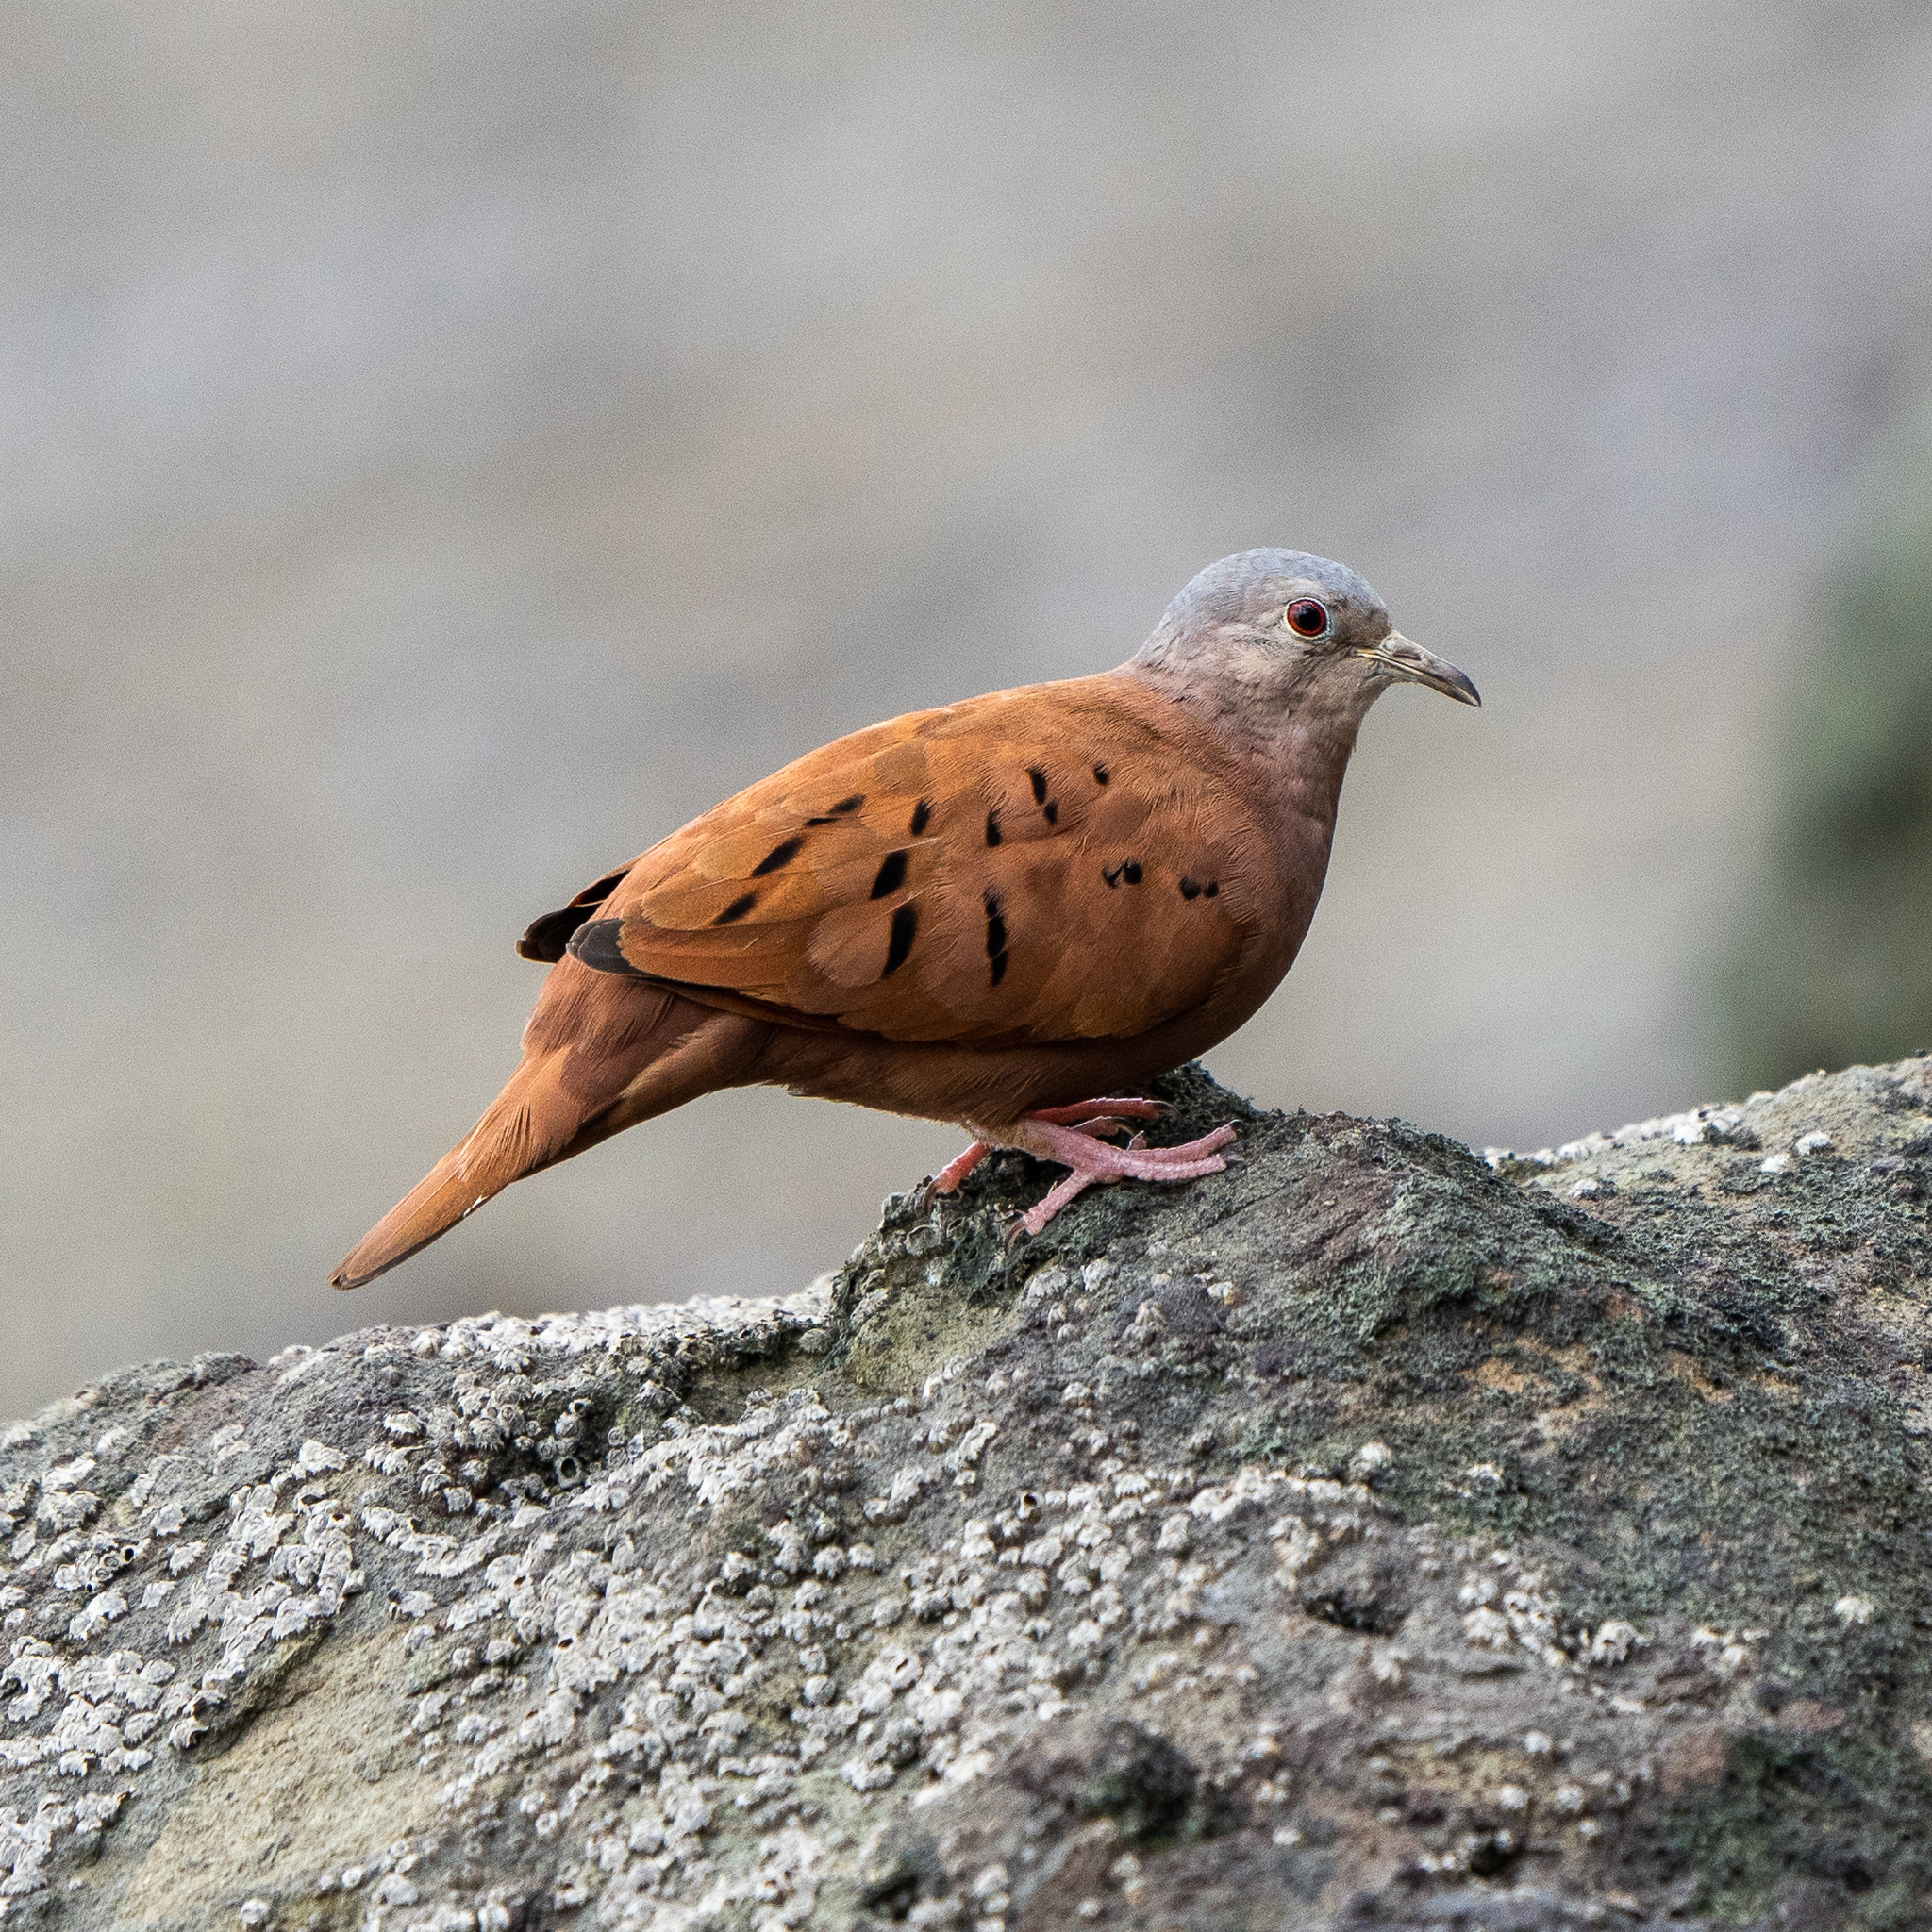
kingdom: Animalia
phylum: Chordata
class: Aves
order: Columbiformes
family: Columbidae
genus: Columbina
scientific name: Columbina talpacoti
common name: Ruddy ground dove
